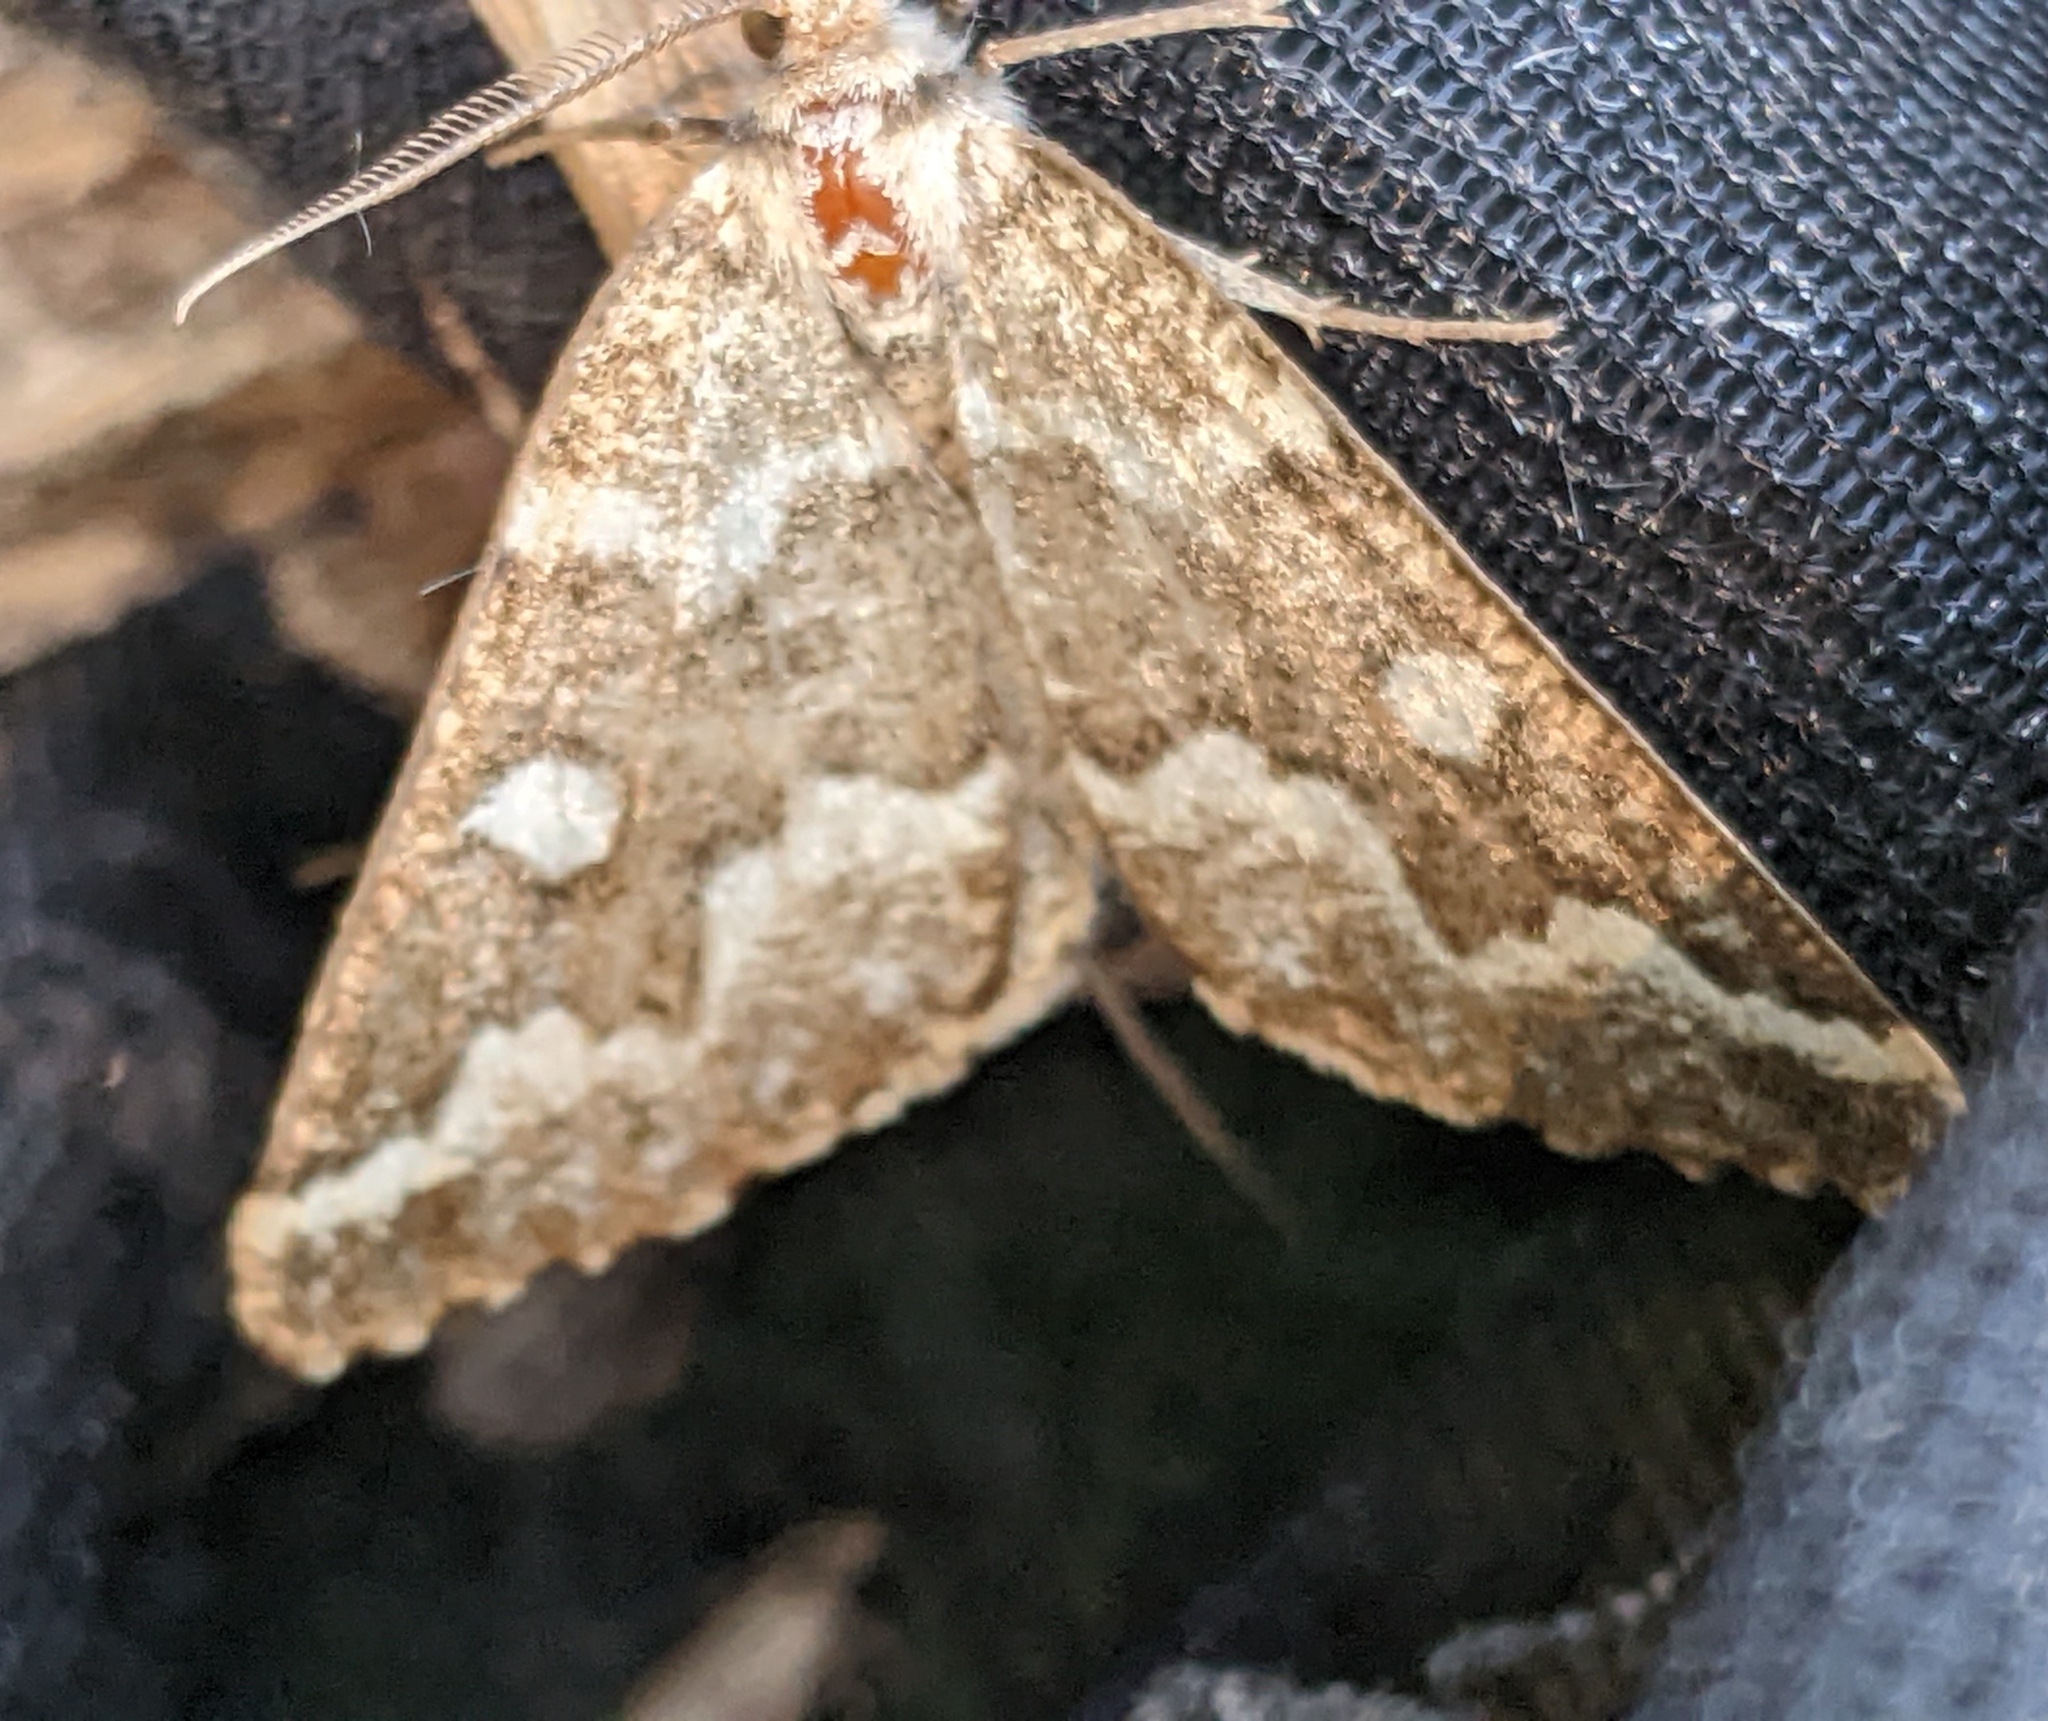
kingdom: Animalia
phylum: Arthropoda
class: Insecta
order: Lepidoptera
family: Geometridae
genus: Caripeta
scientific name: Caripeta divisata
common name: Gray spruce looper
